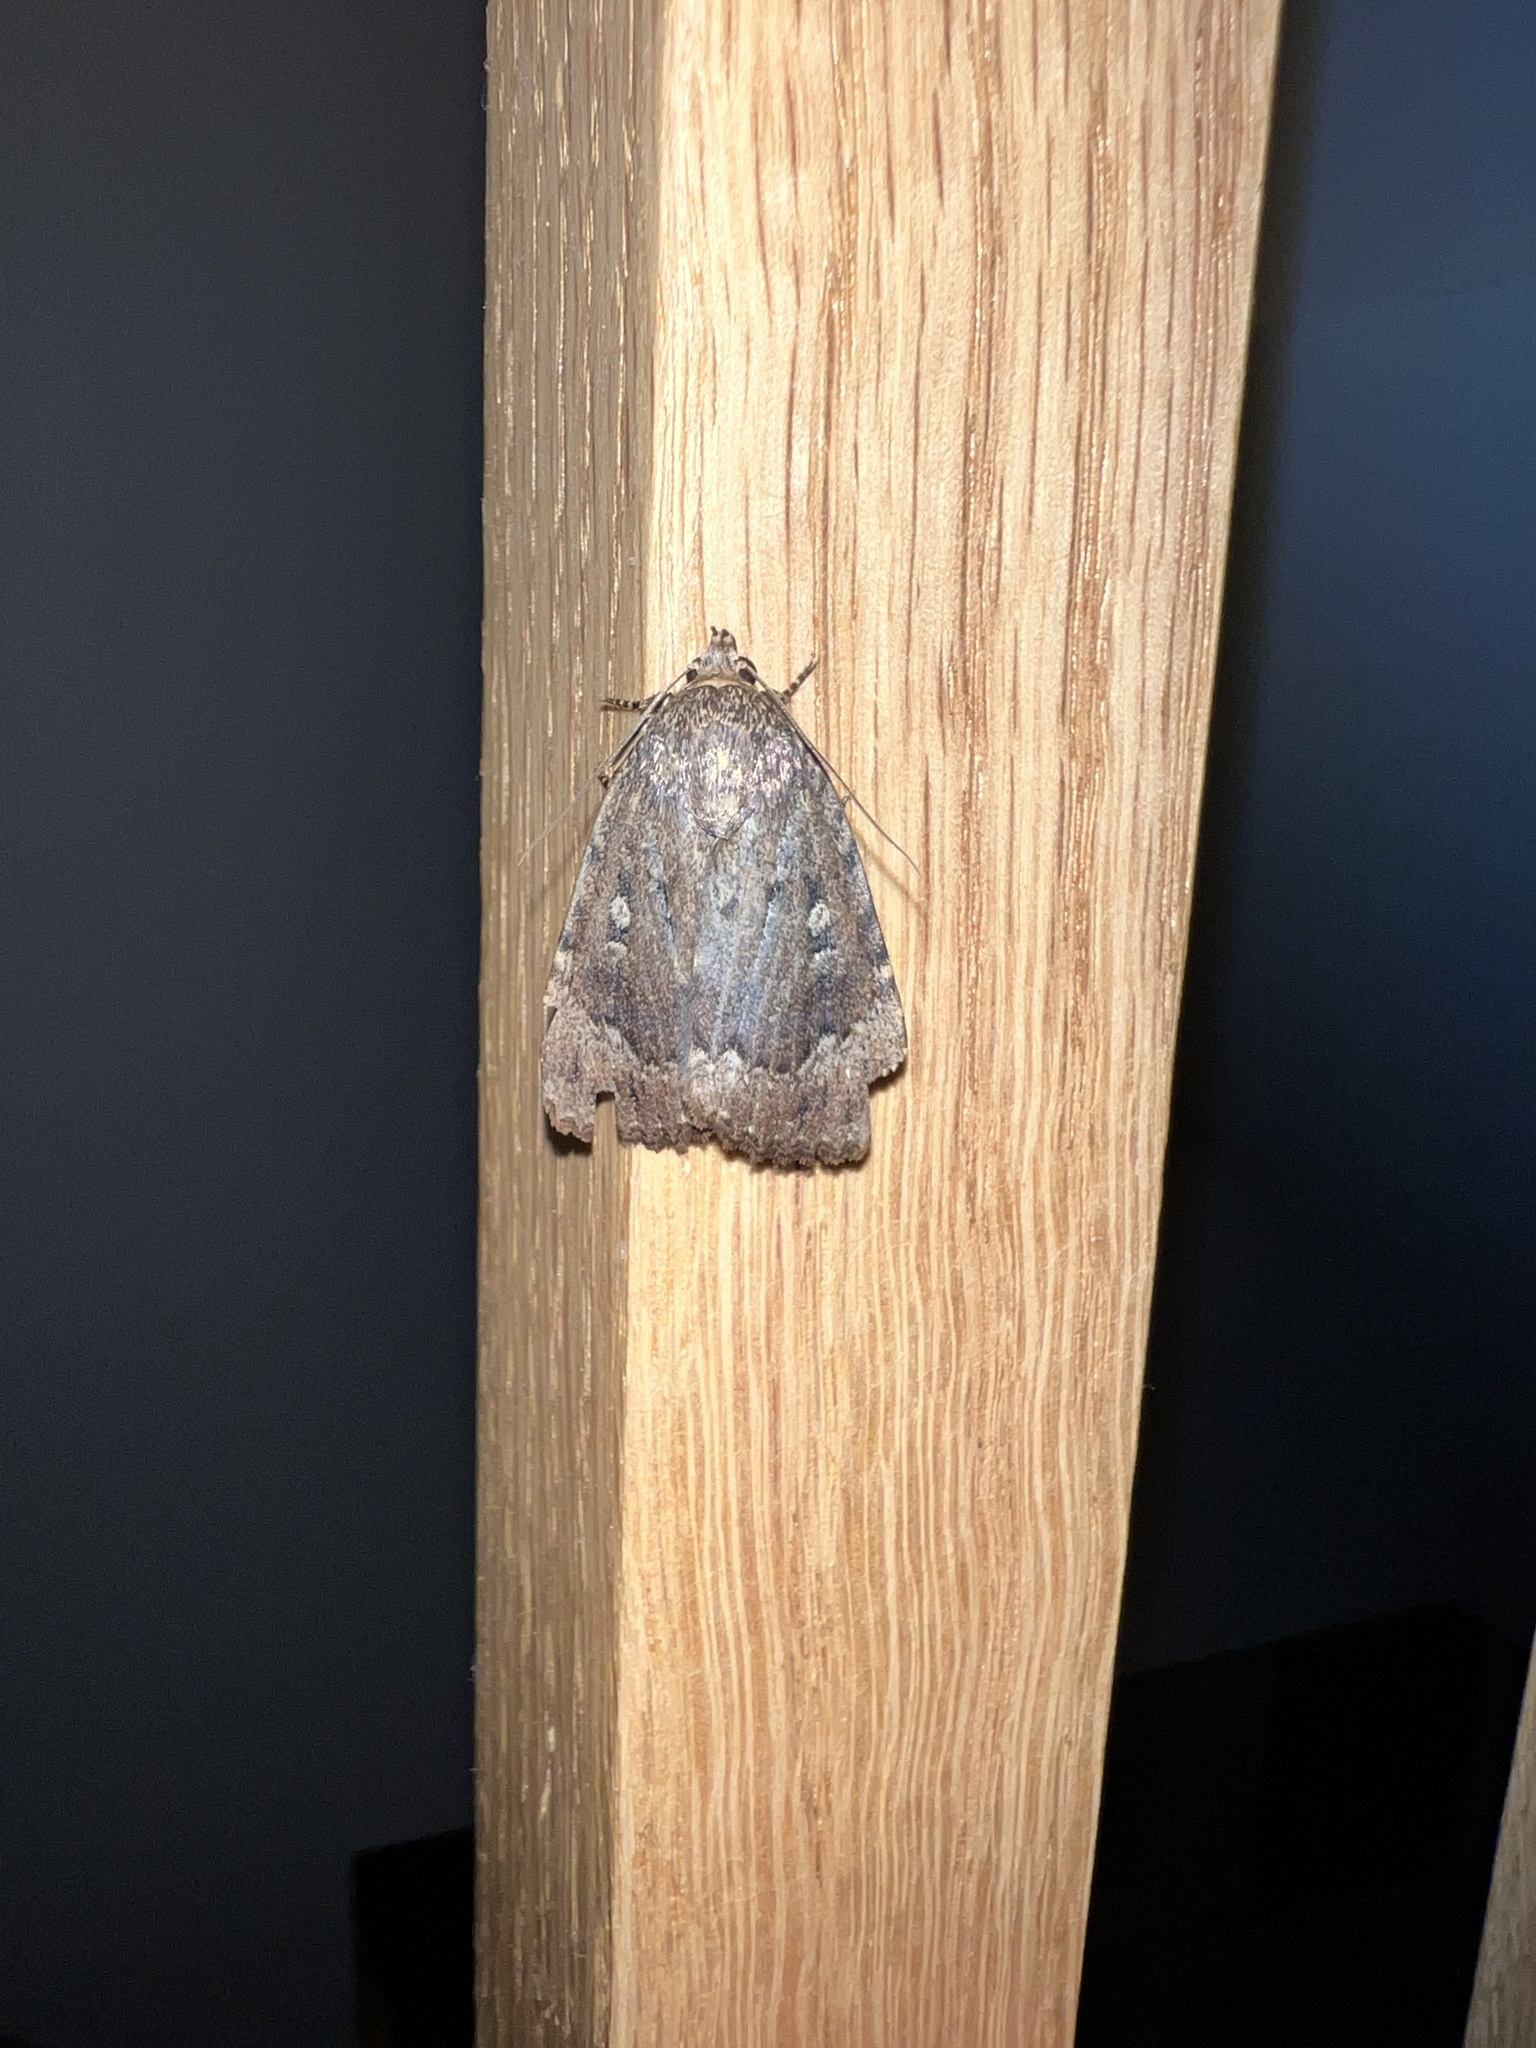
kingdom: Animalia
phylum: Arthropoda
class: Insecta
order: Lepidoptera
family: Noctuidae
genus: Amphipyra
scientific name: Amphipyra pyramidoides
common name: American copper underwing
